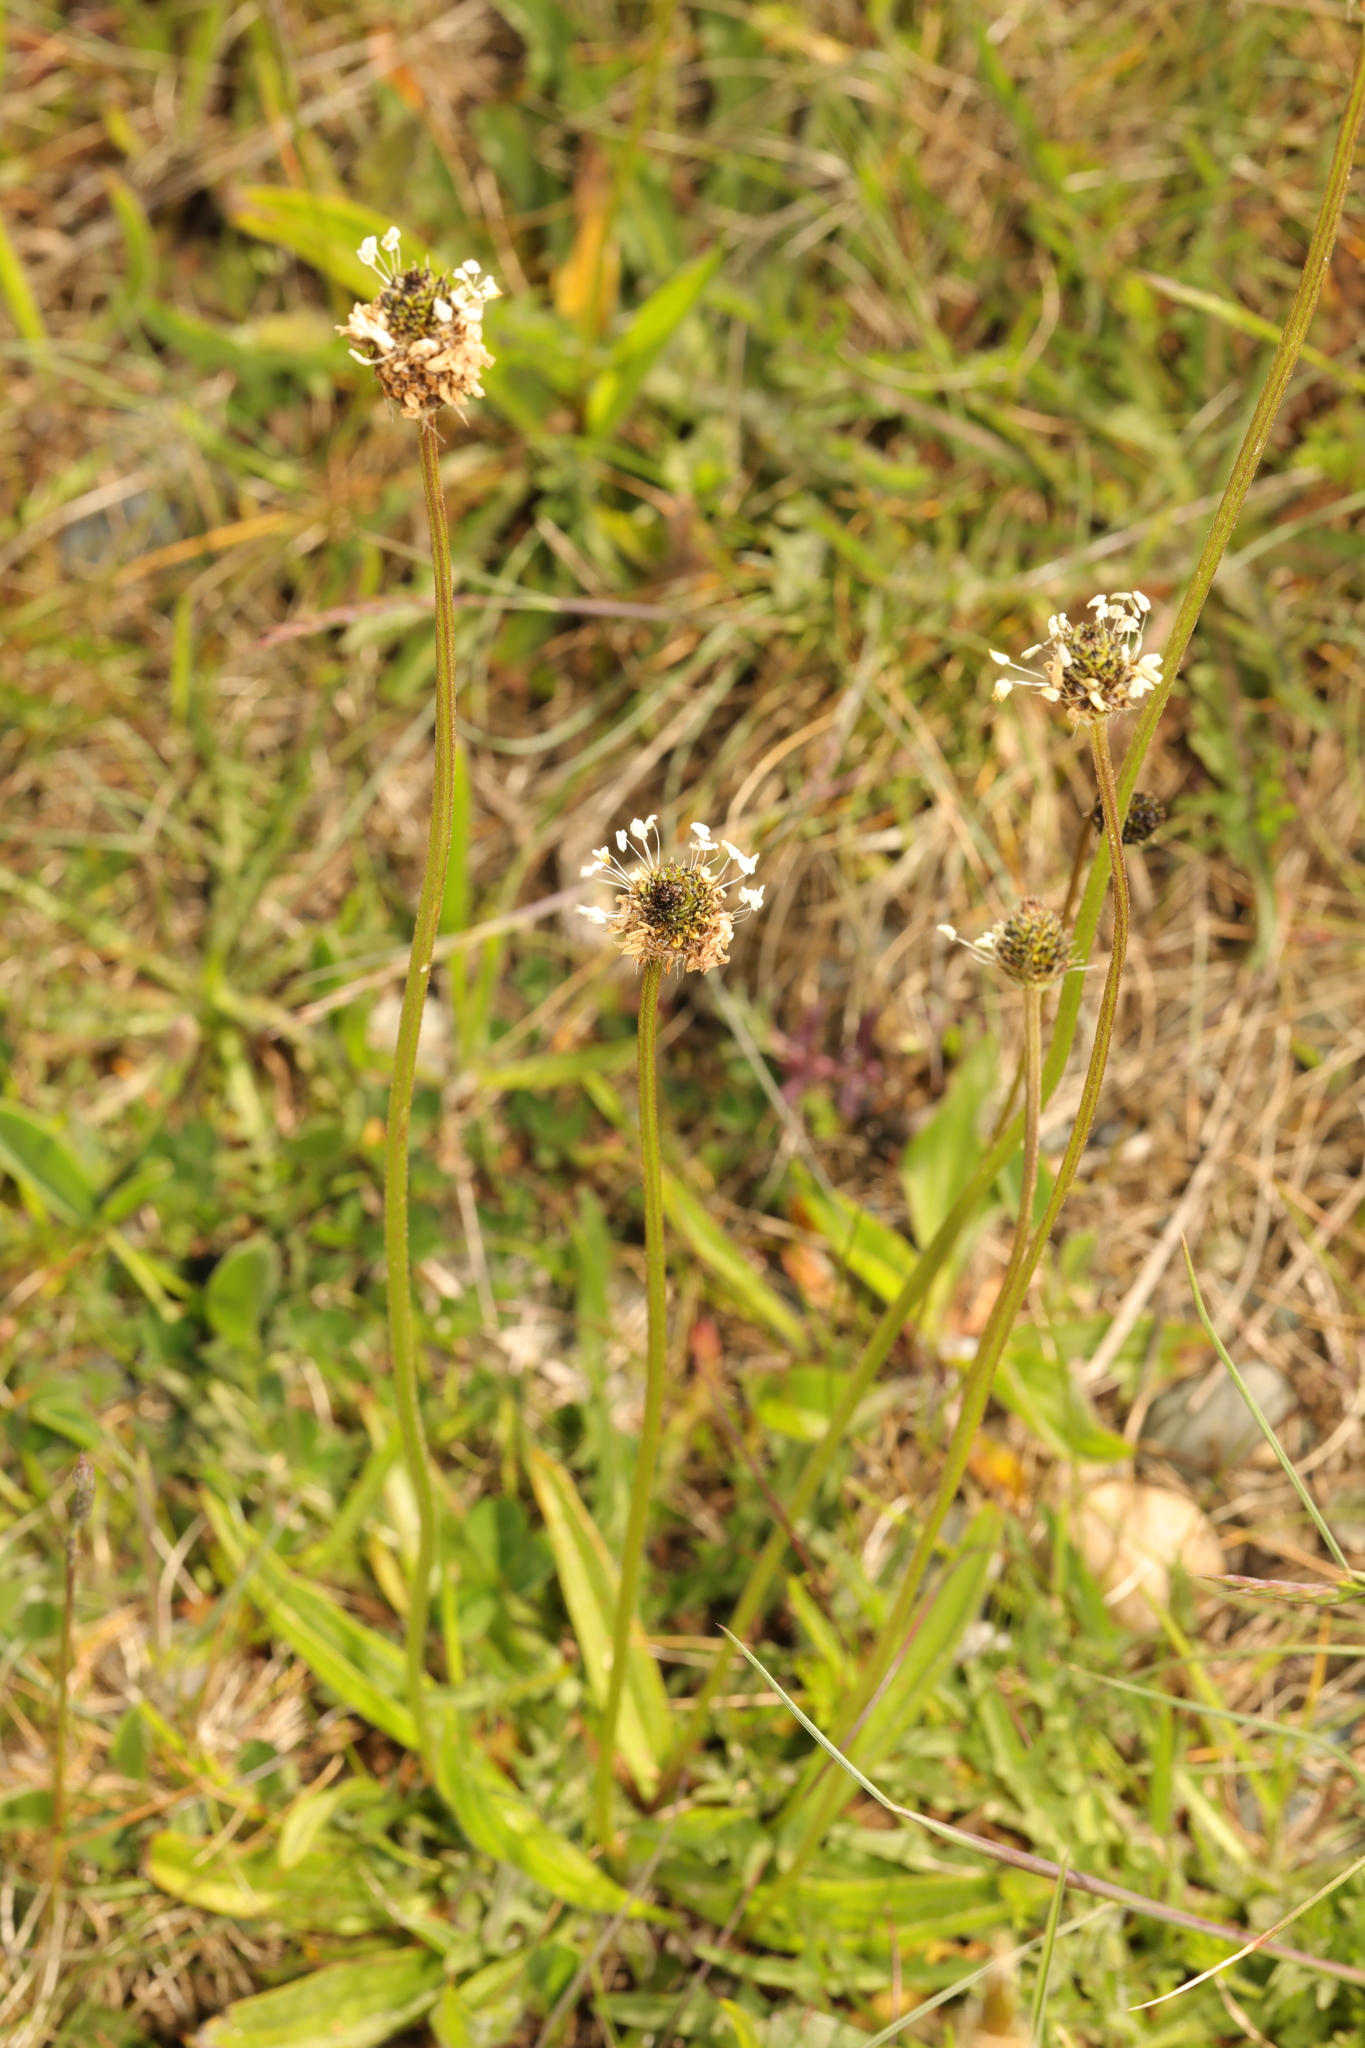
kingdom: Plantae
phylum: Tracheophyta
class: Magnoliopsida
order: Lamiales
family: Plantaginaceae
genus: Plantago
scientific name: Plantago lanceolata
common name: Ribwort plantain
